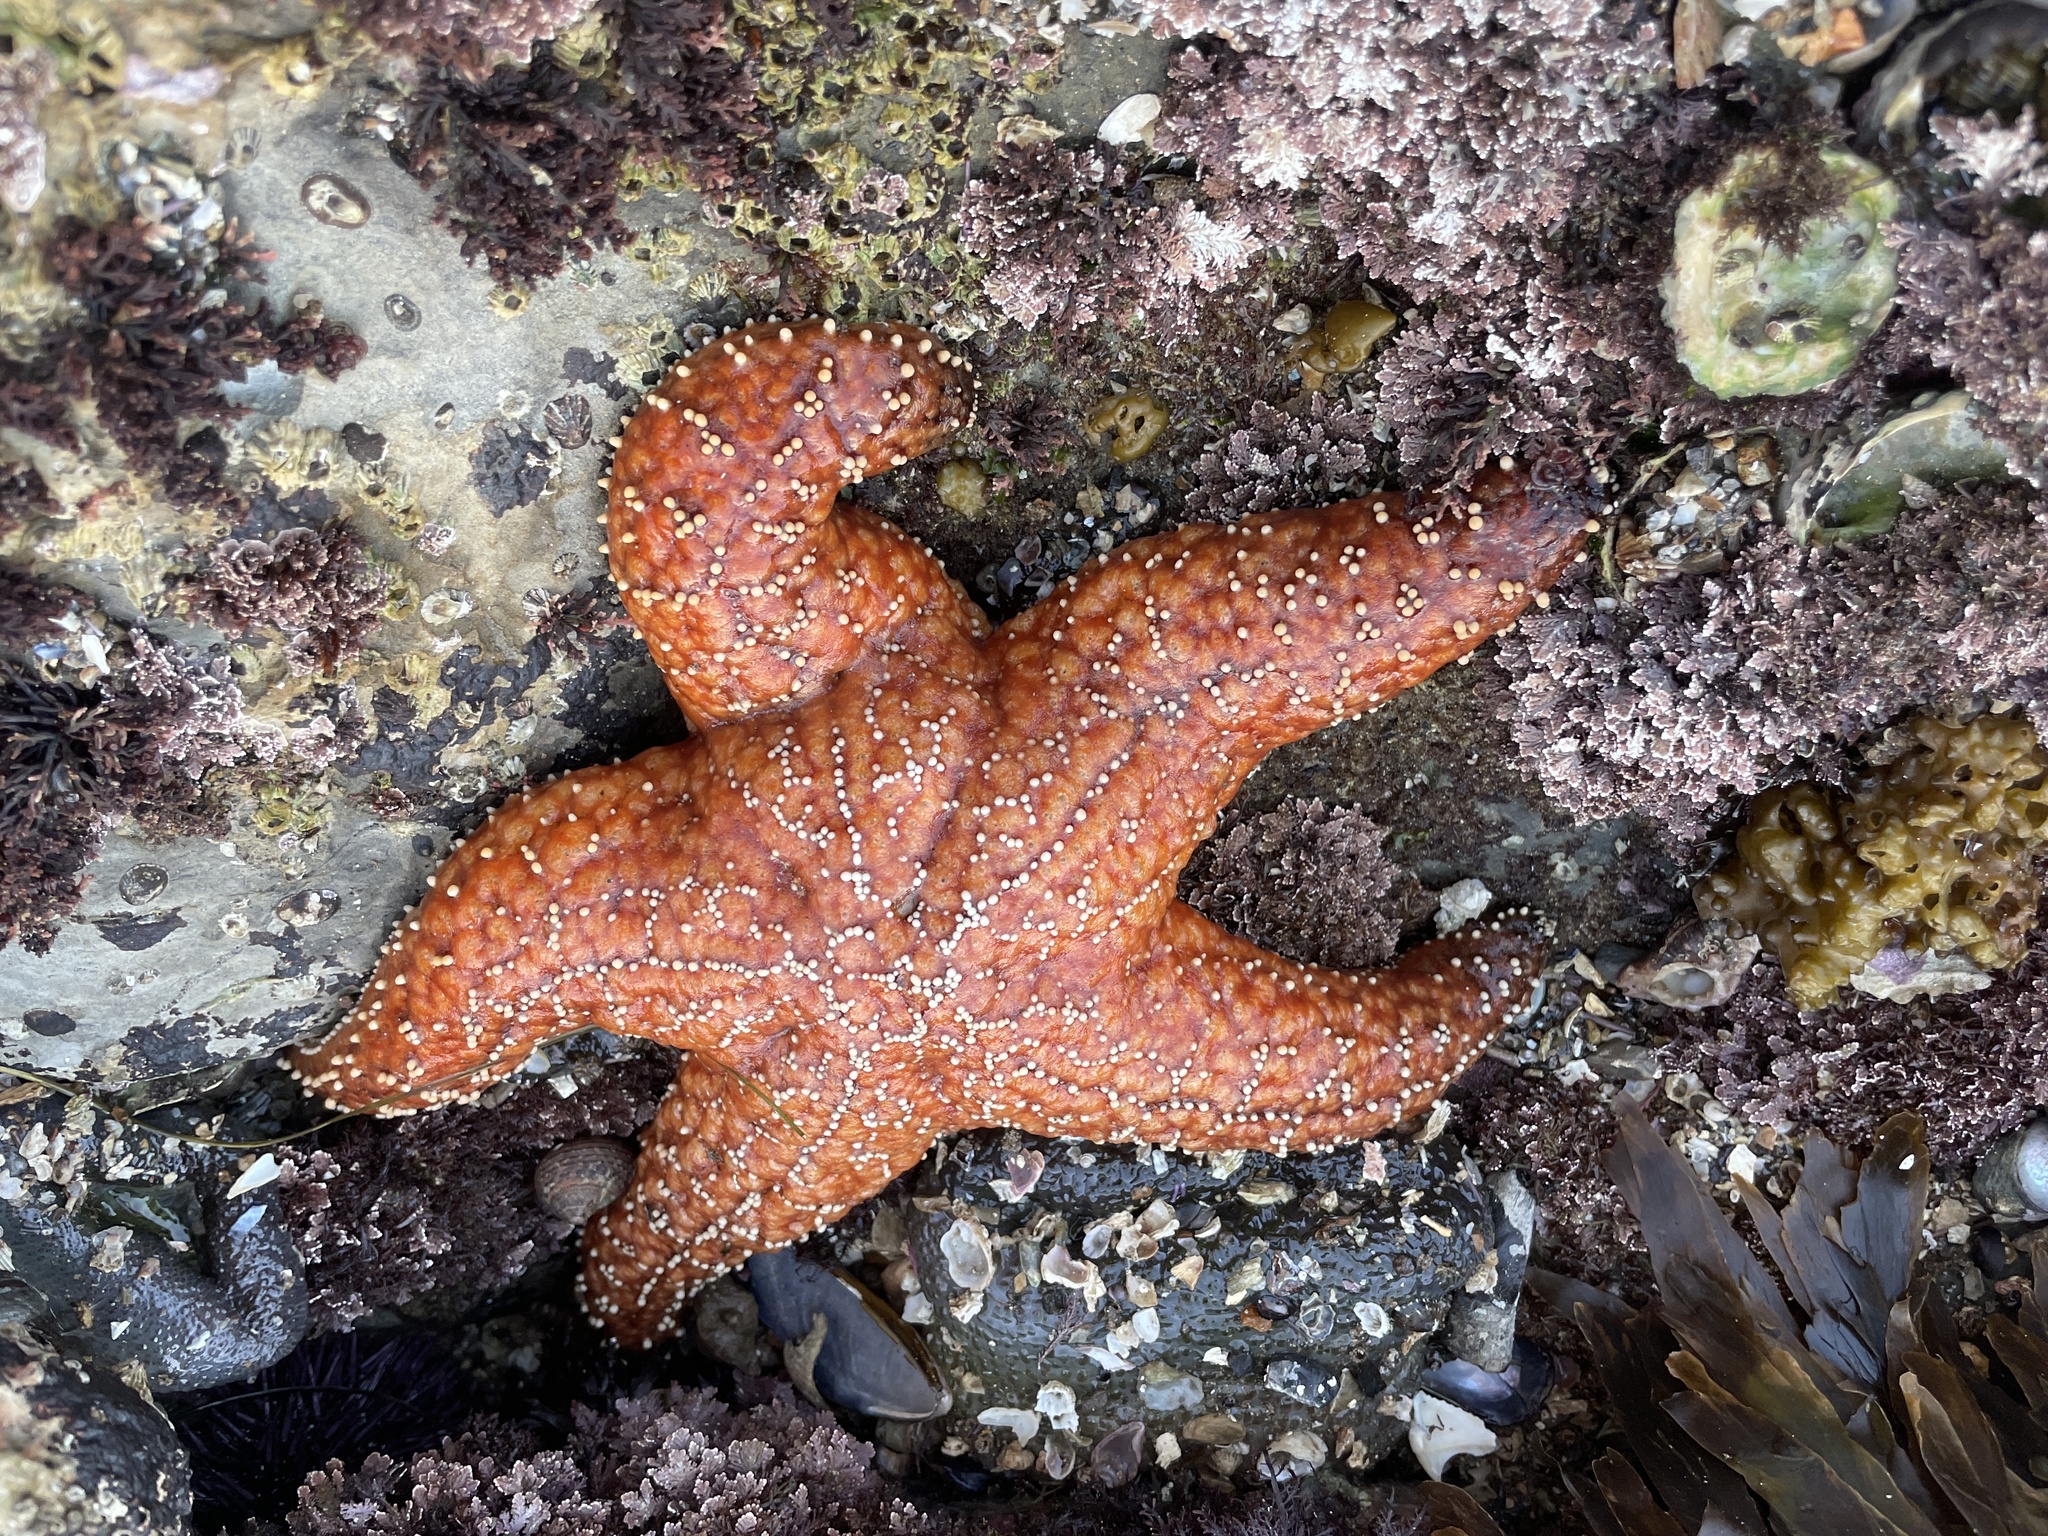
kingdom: Animalia
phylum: Echinodermata
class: Asteroidea
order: Forcipulatida
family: Asteriidae
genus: Pisaster
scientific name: Pisaster ochraceus
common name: Ochre stars
